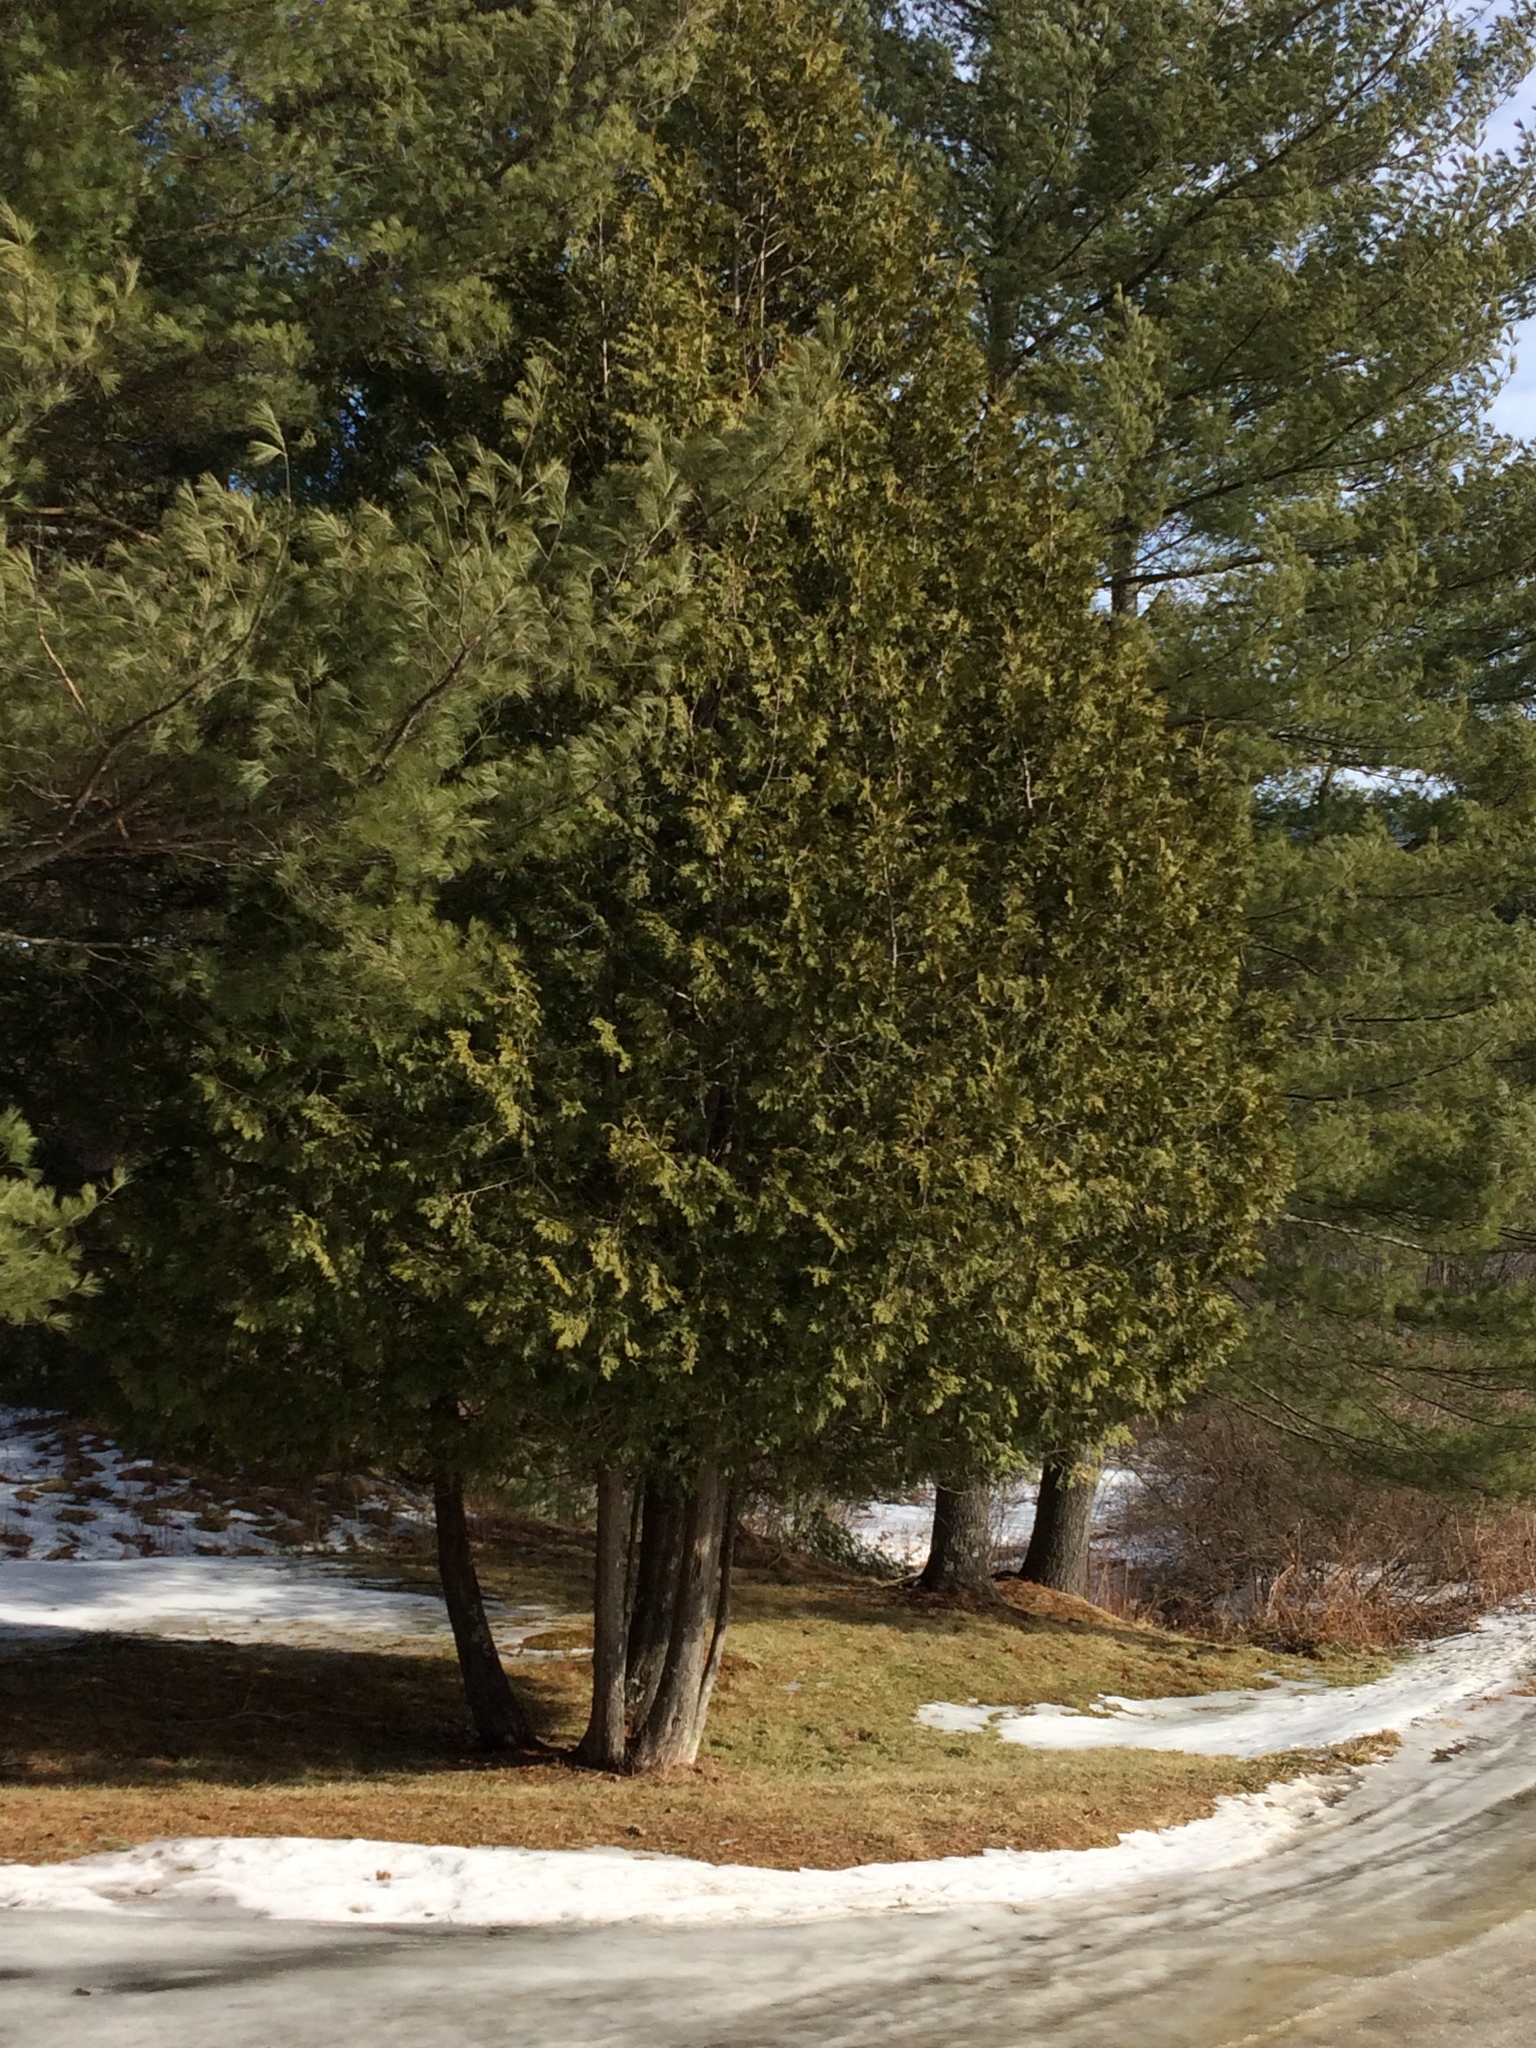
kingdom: Plantae
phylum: Tracheophyta
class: Pinopsida
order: Pinales
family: Cupressaceae
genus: Thuja
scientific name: Thuja occidentalis
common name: Northern white-cedar
